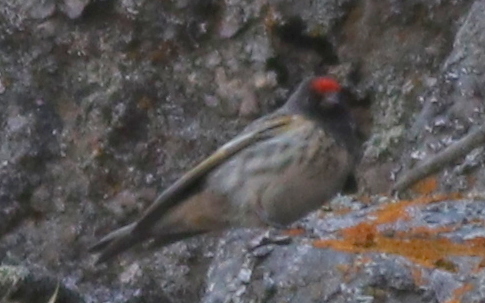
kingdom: Animalia
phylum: Chordata
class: Aves
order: Passeriformes
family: Fringillidae
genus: Serinus
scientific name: Serinus pusillus
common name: Red-fronted serin
